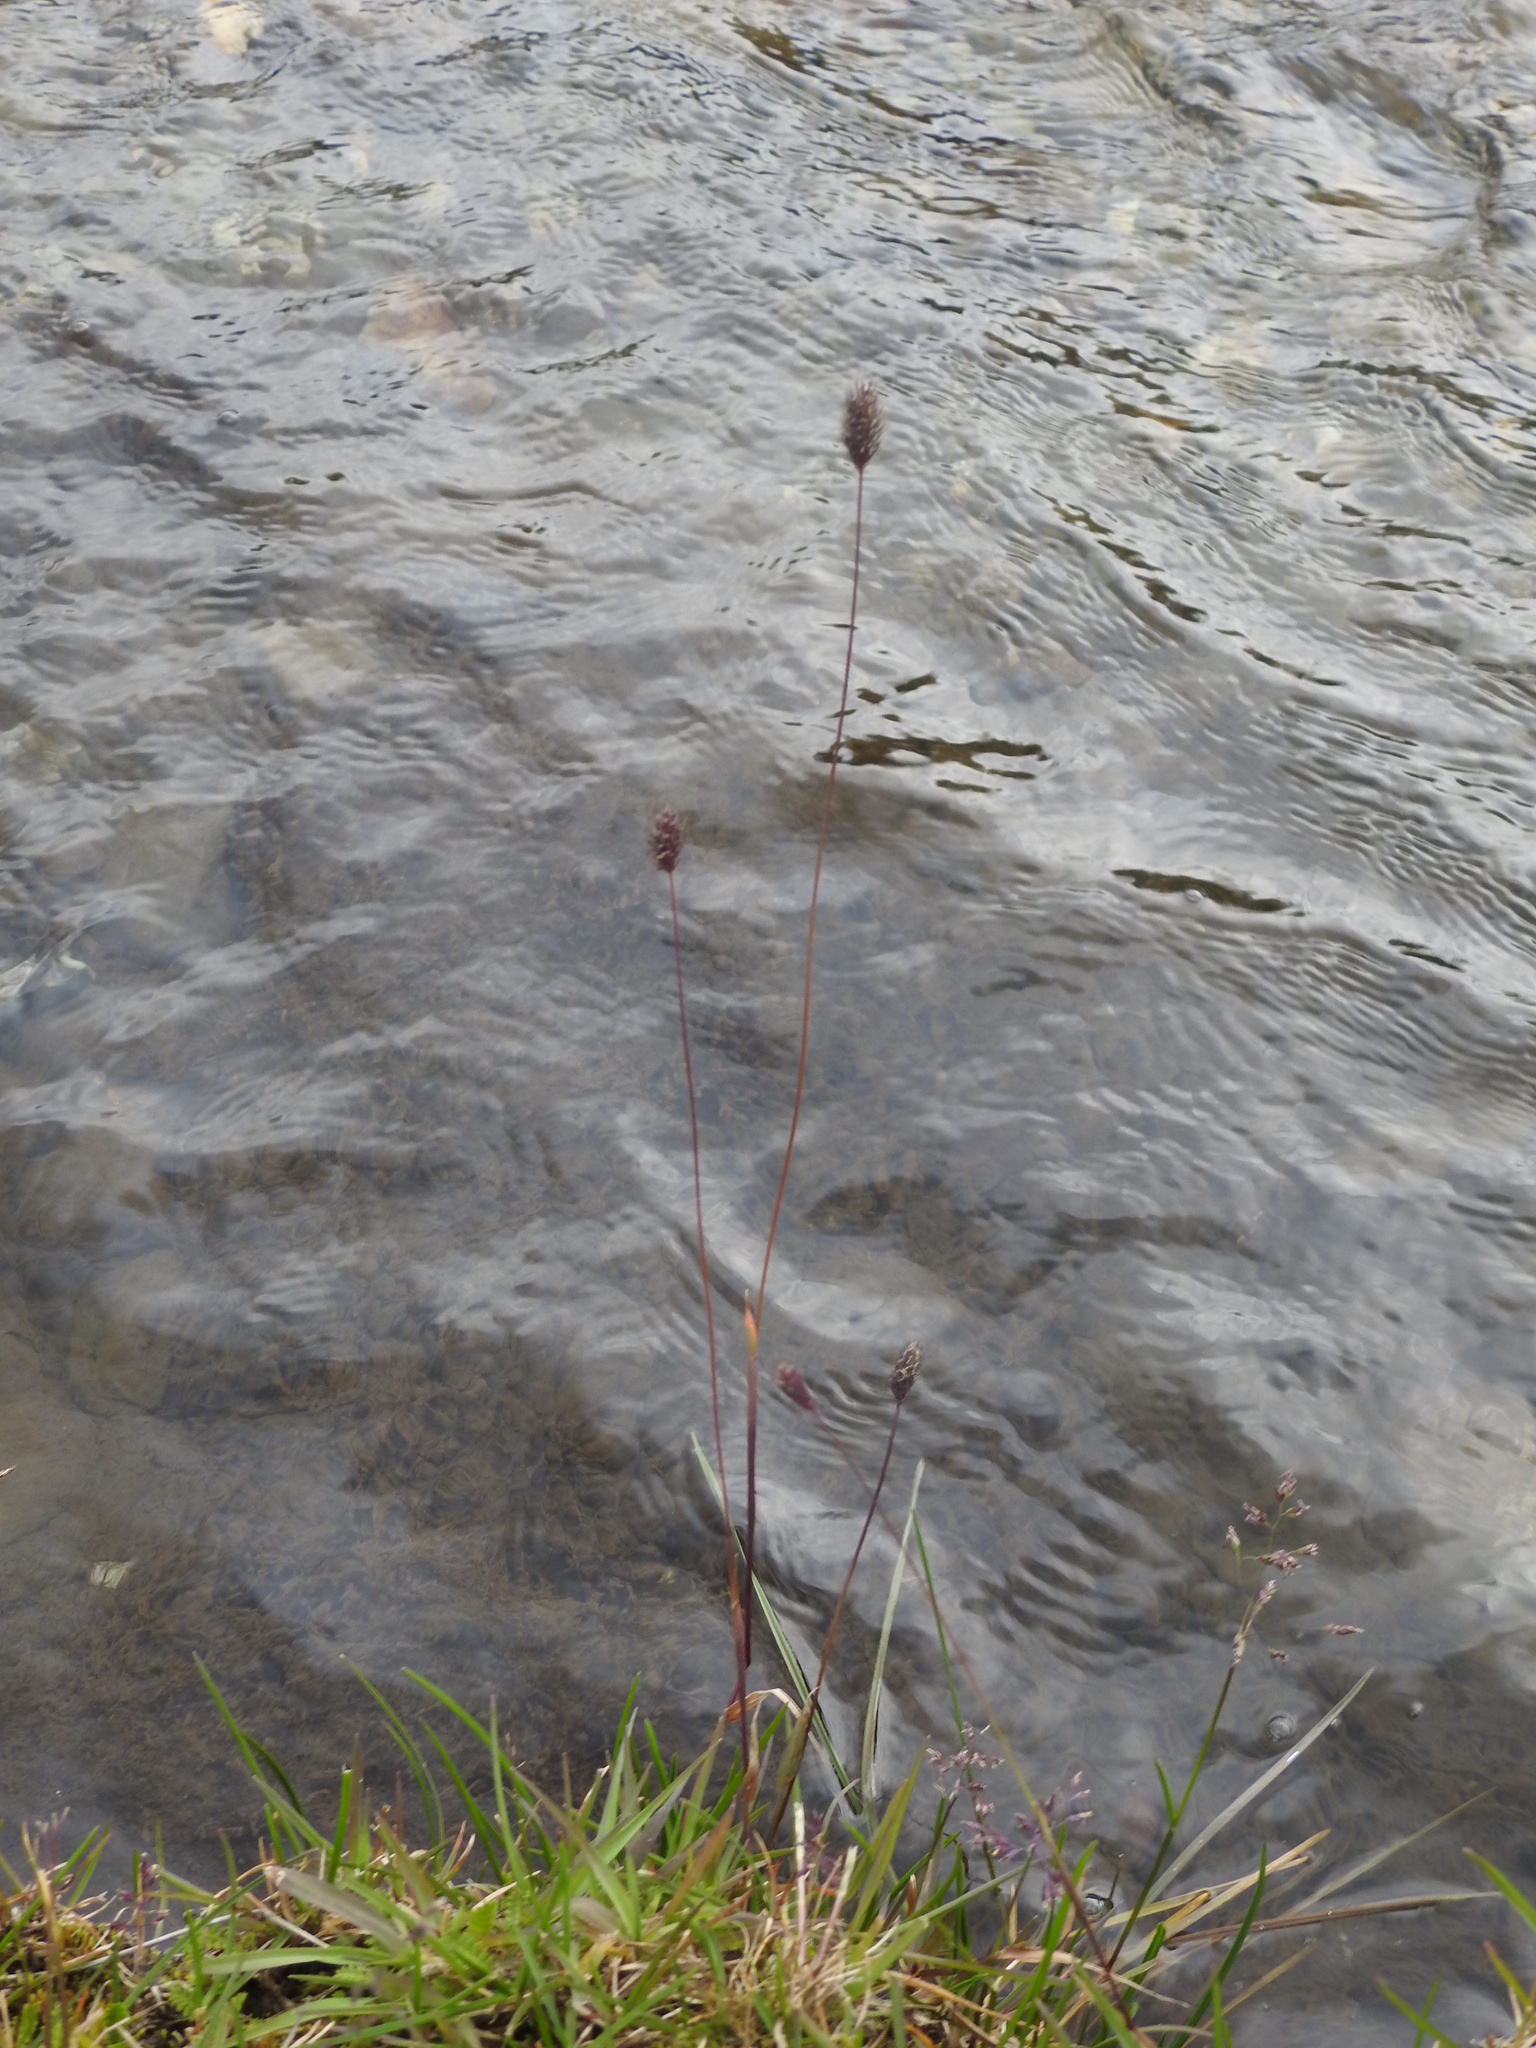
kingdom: Plantae
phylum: Tracheophyta
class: Liliopsida
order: Poales
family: Poaceae
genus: Phleum
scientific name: Phleum alpinum
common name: Alpine cat's-tail
